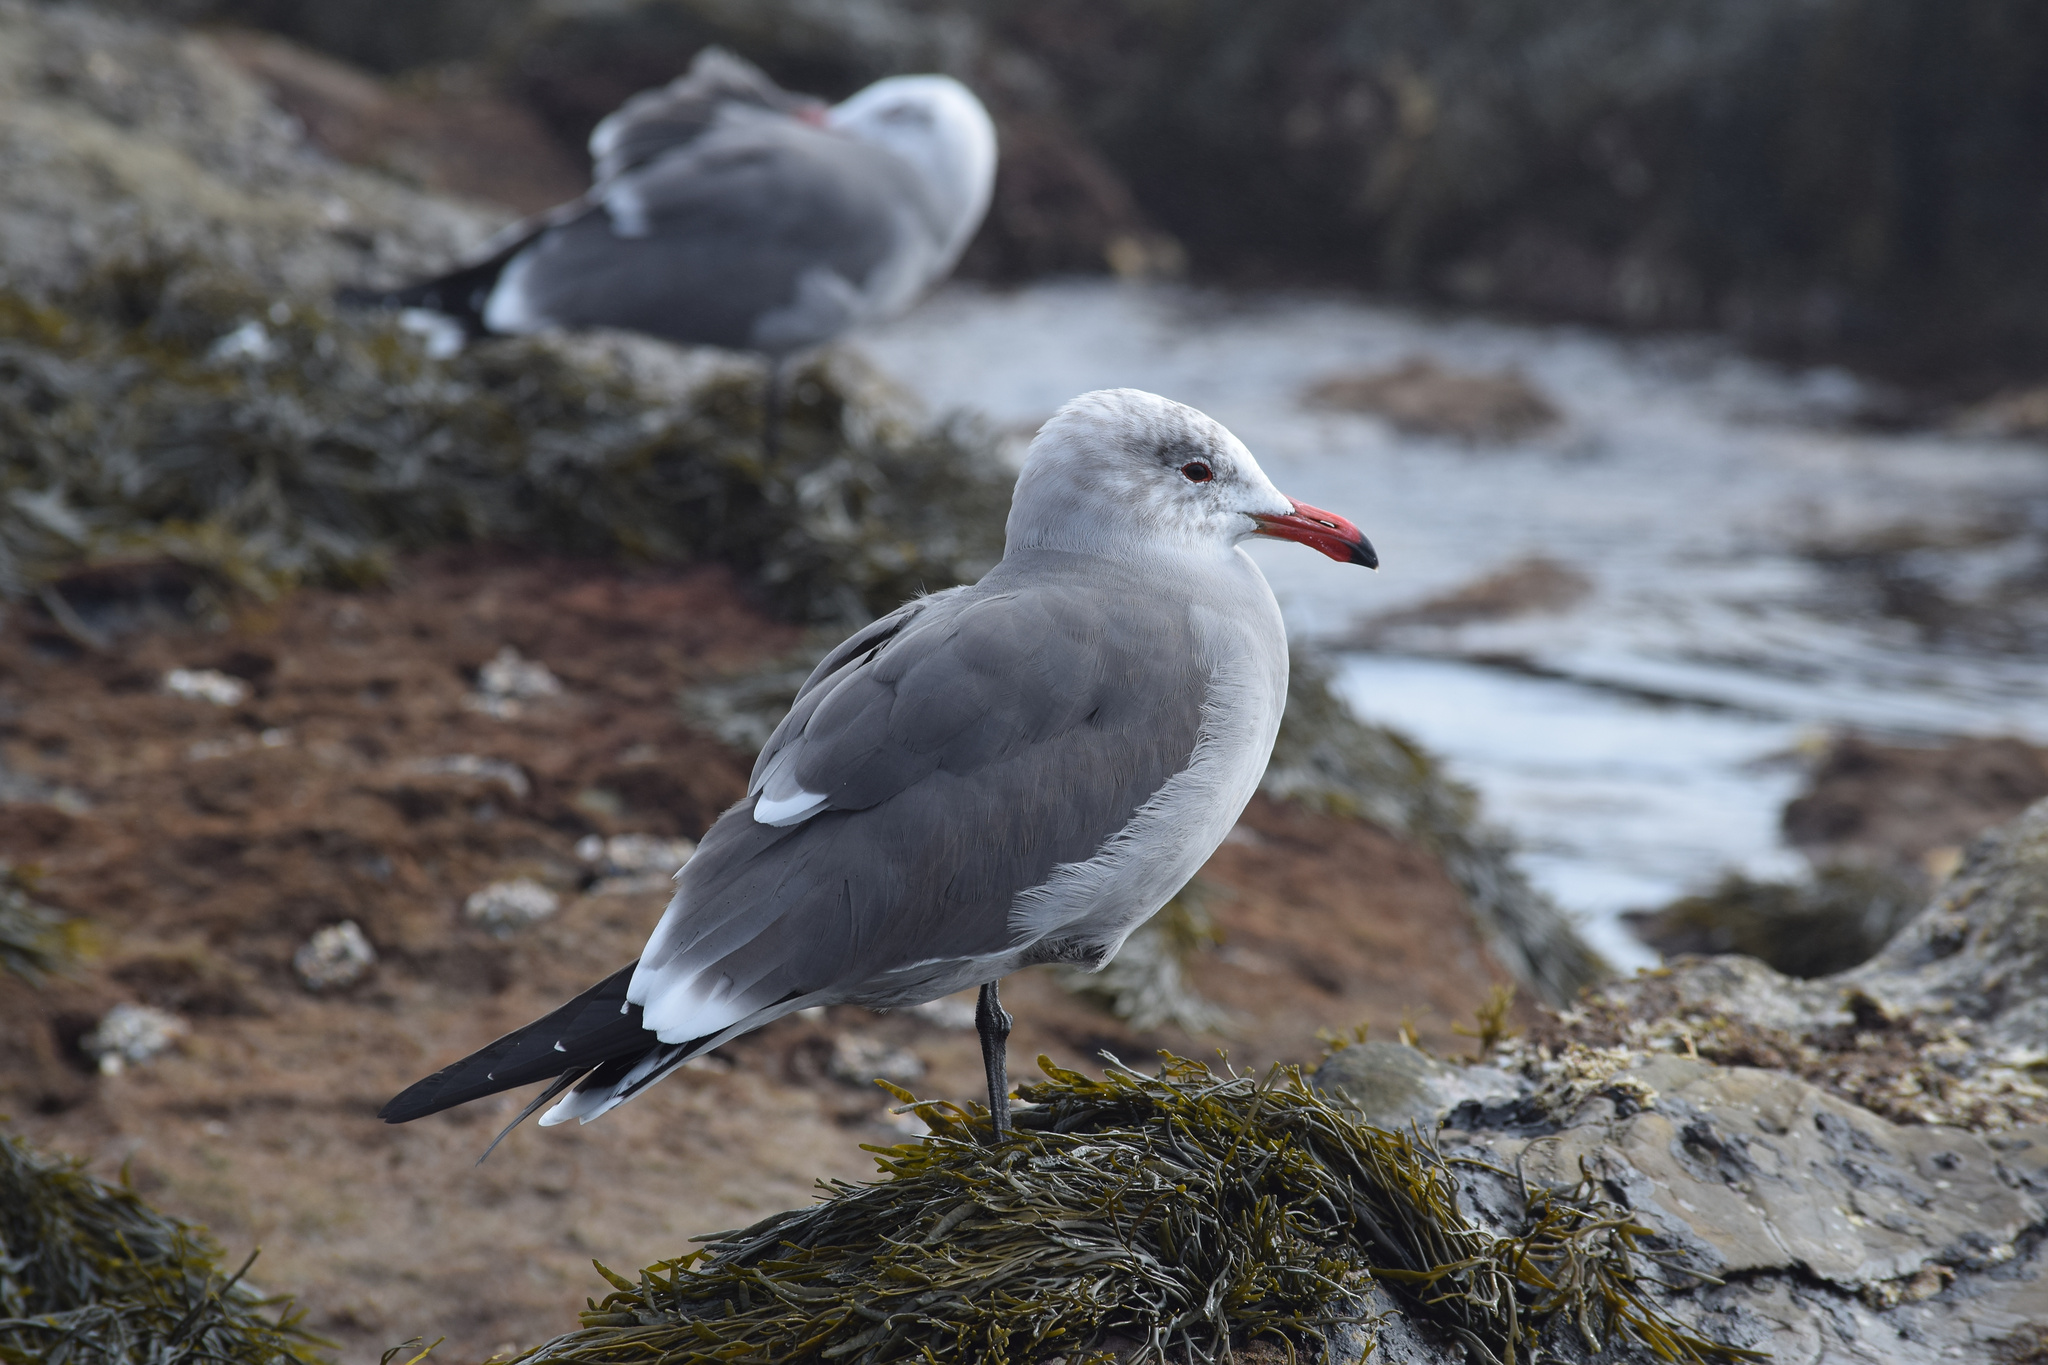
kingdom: Animalia
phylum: Chordata
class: Aves
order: Charadriiformes
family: Laridae
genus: Larus
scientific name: Larus heermanni
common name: Heermann's gull
